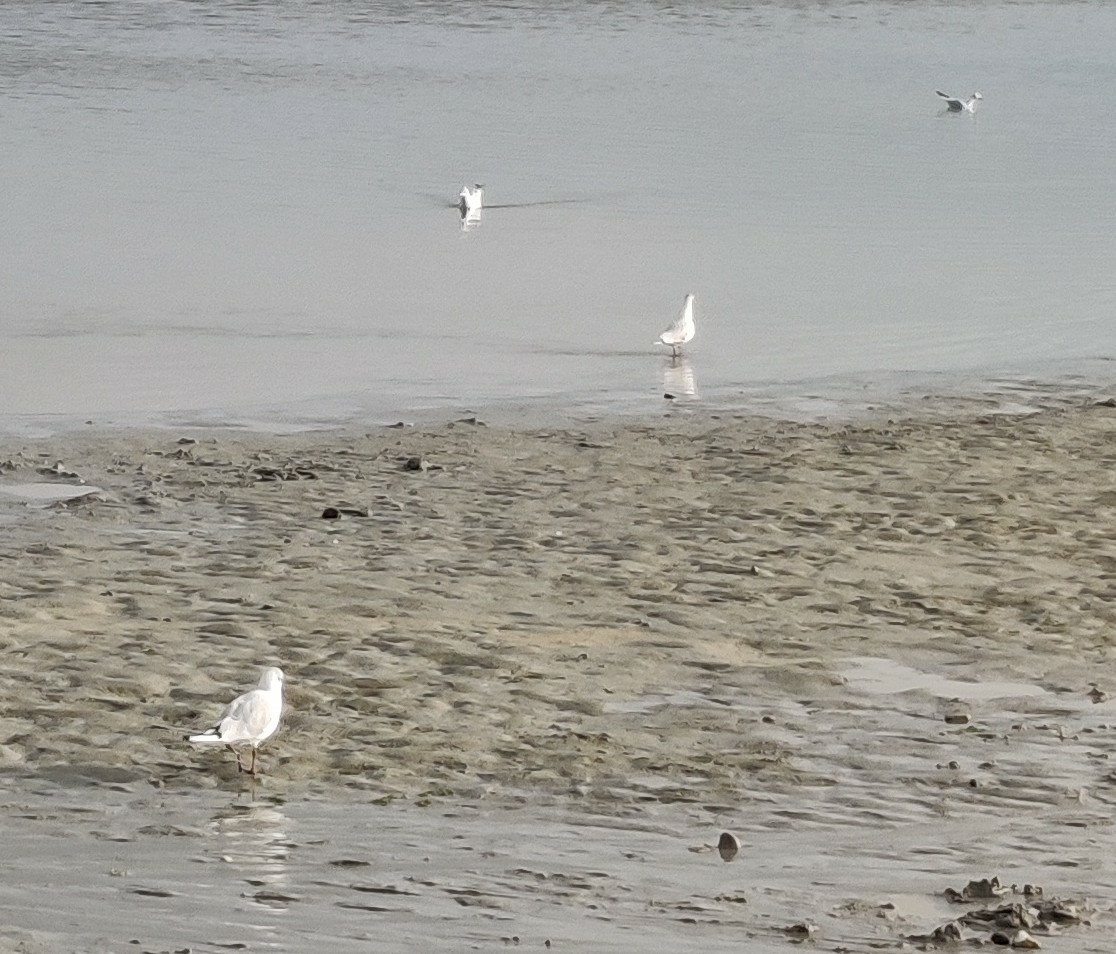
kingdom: Animalia
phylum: Chordata
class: Aves
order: Charadriiformes
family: Laridae
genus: Chroicocephalus
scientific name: Chroicocephalus ridibundus
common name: Black-headed gull
